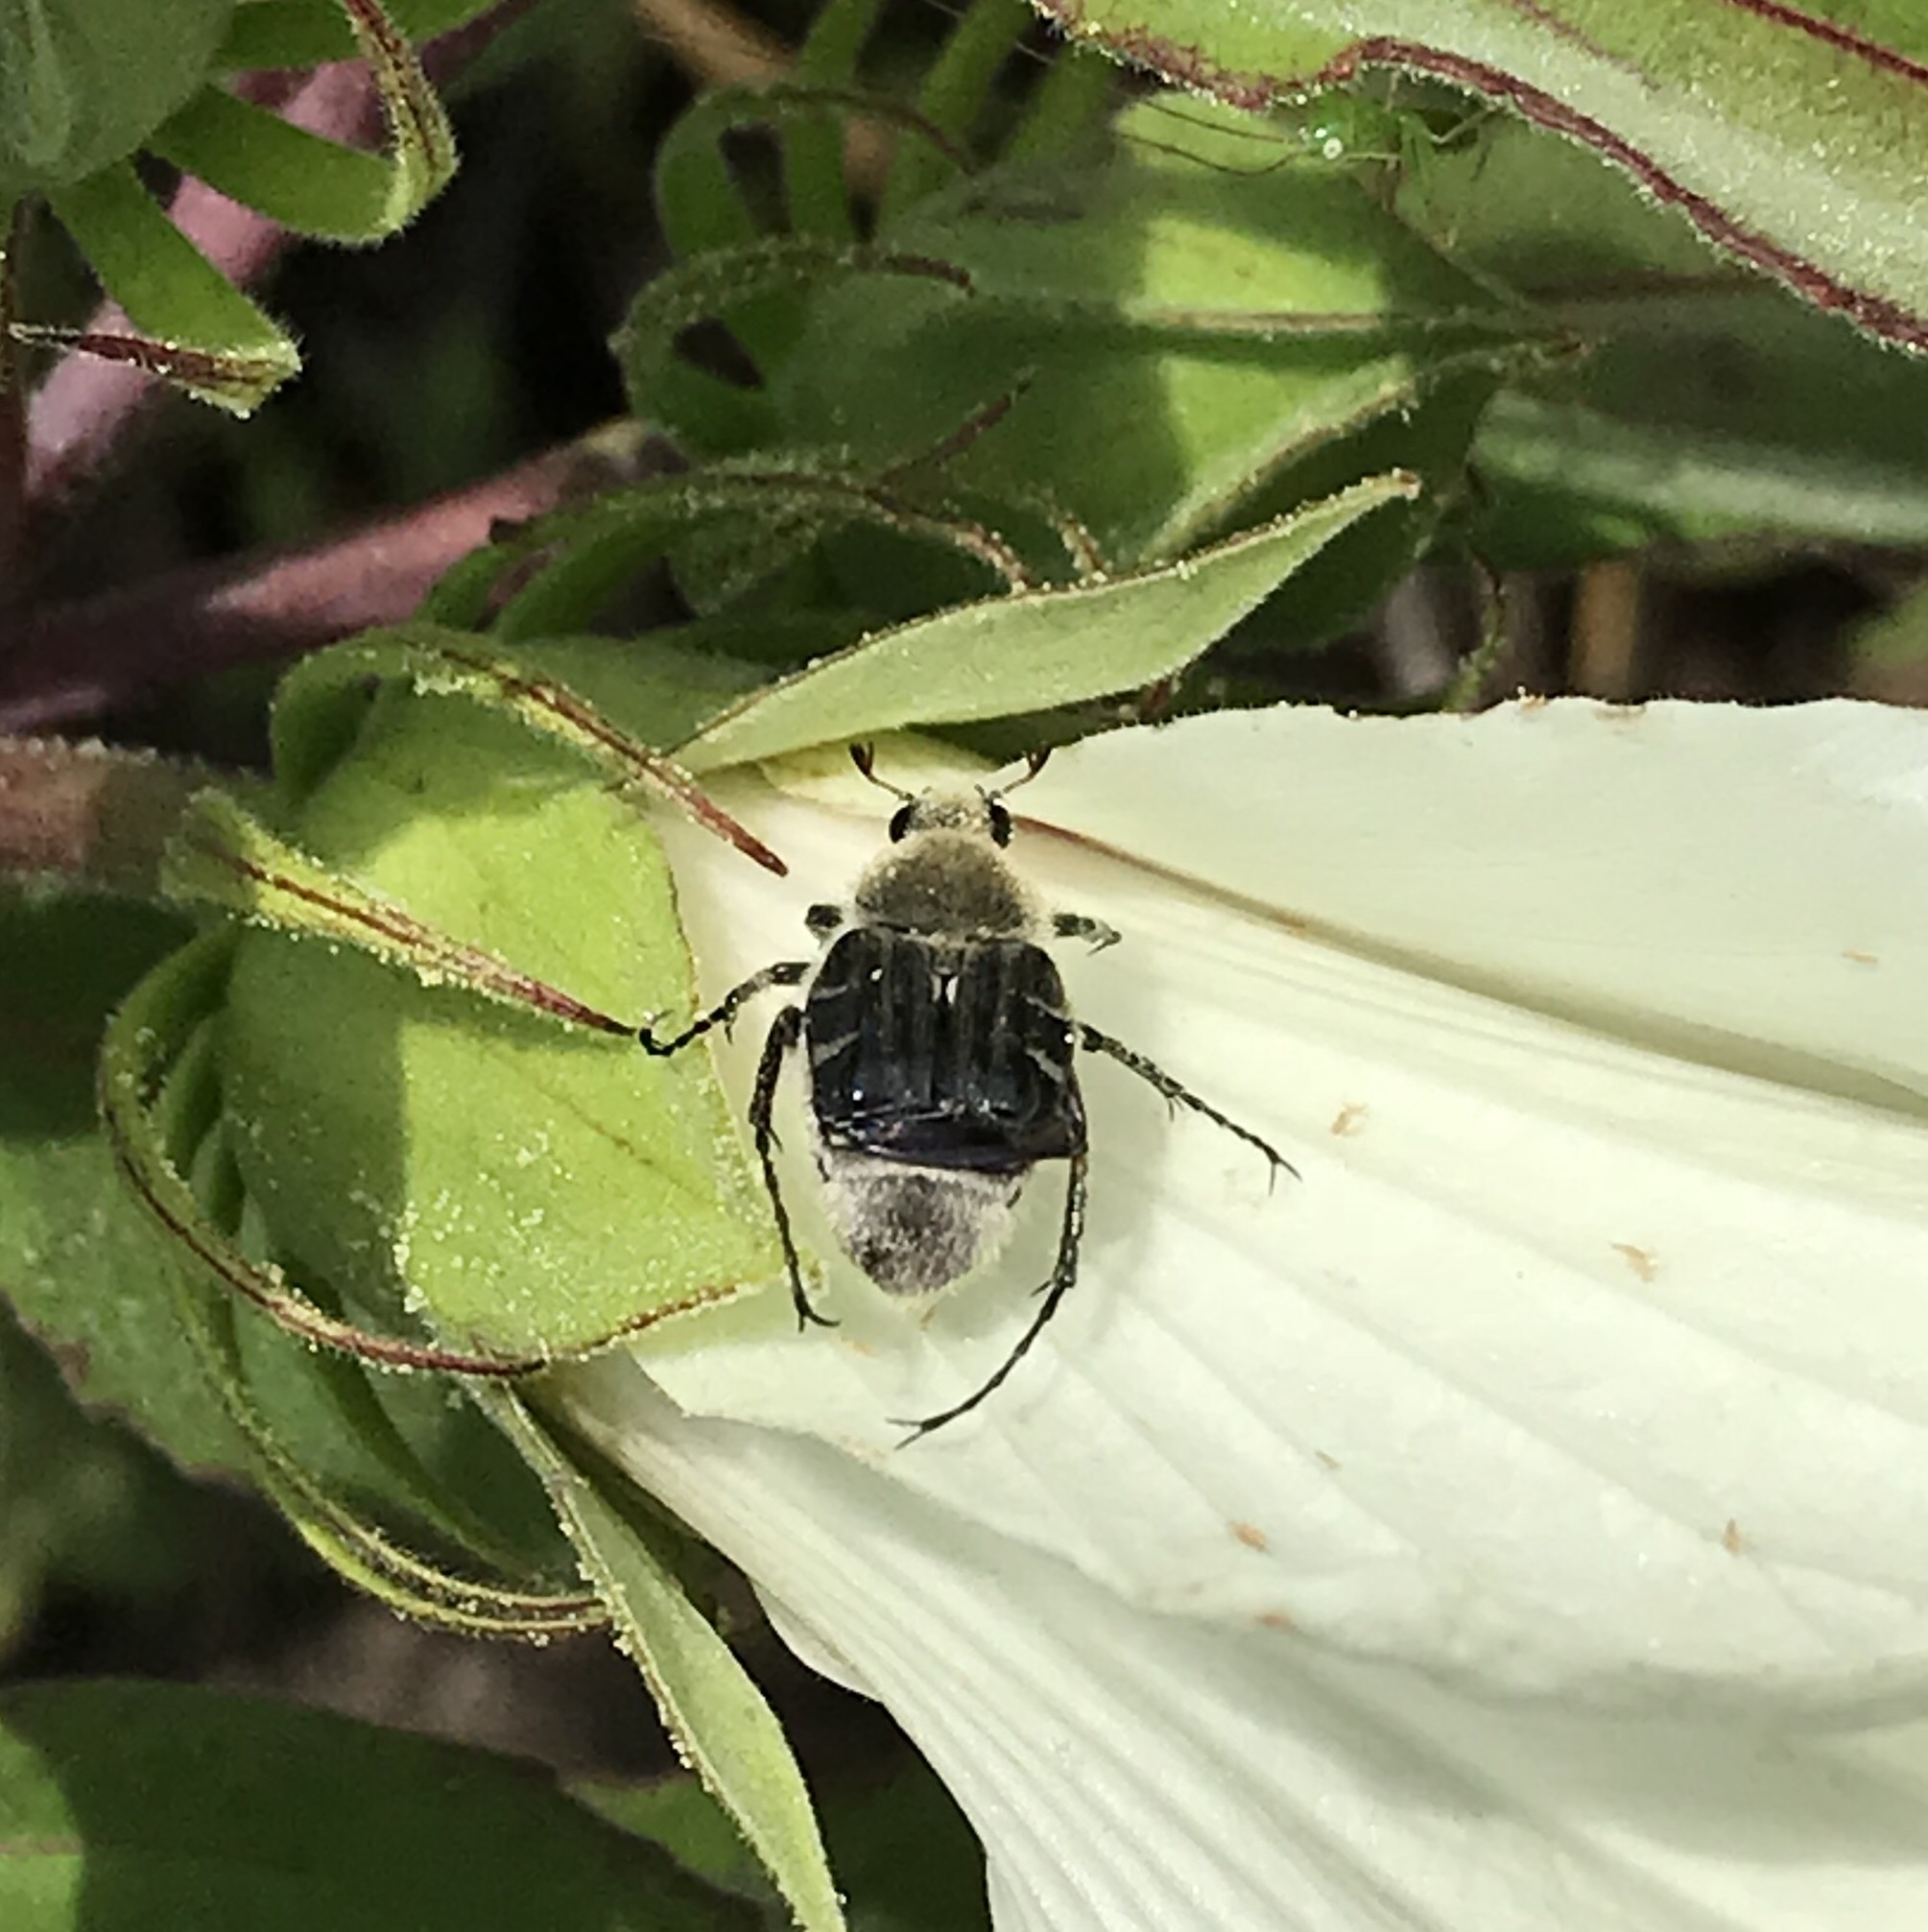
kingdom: Animalia
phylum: Arthropoda
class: Insecta
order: Coleoptera
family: Scarabaeidae
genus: Trichiotinus
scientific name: Trichiotinus texanus
